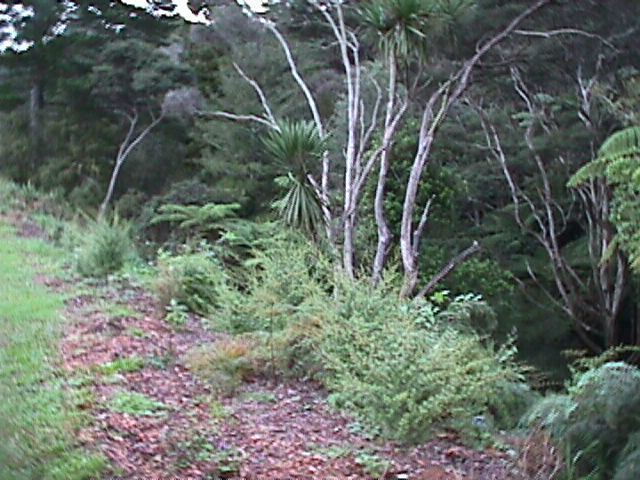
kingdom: Plantae
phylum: Tracheophyta
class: Liliopsida
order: Asparagales
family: Asparagaceae
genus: Cordyline
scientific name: Cordyline australis
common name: Cabbage-palm
